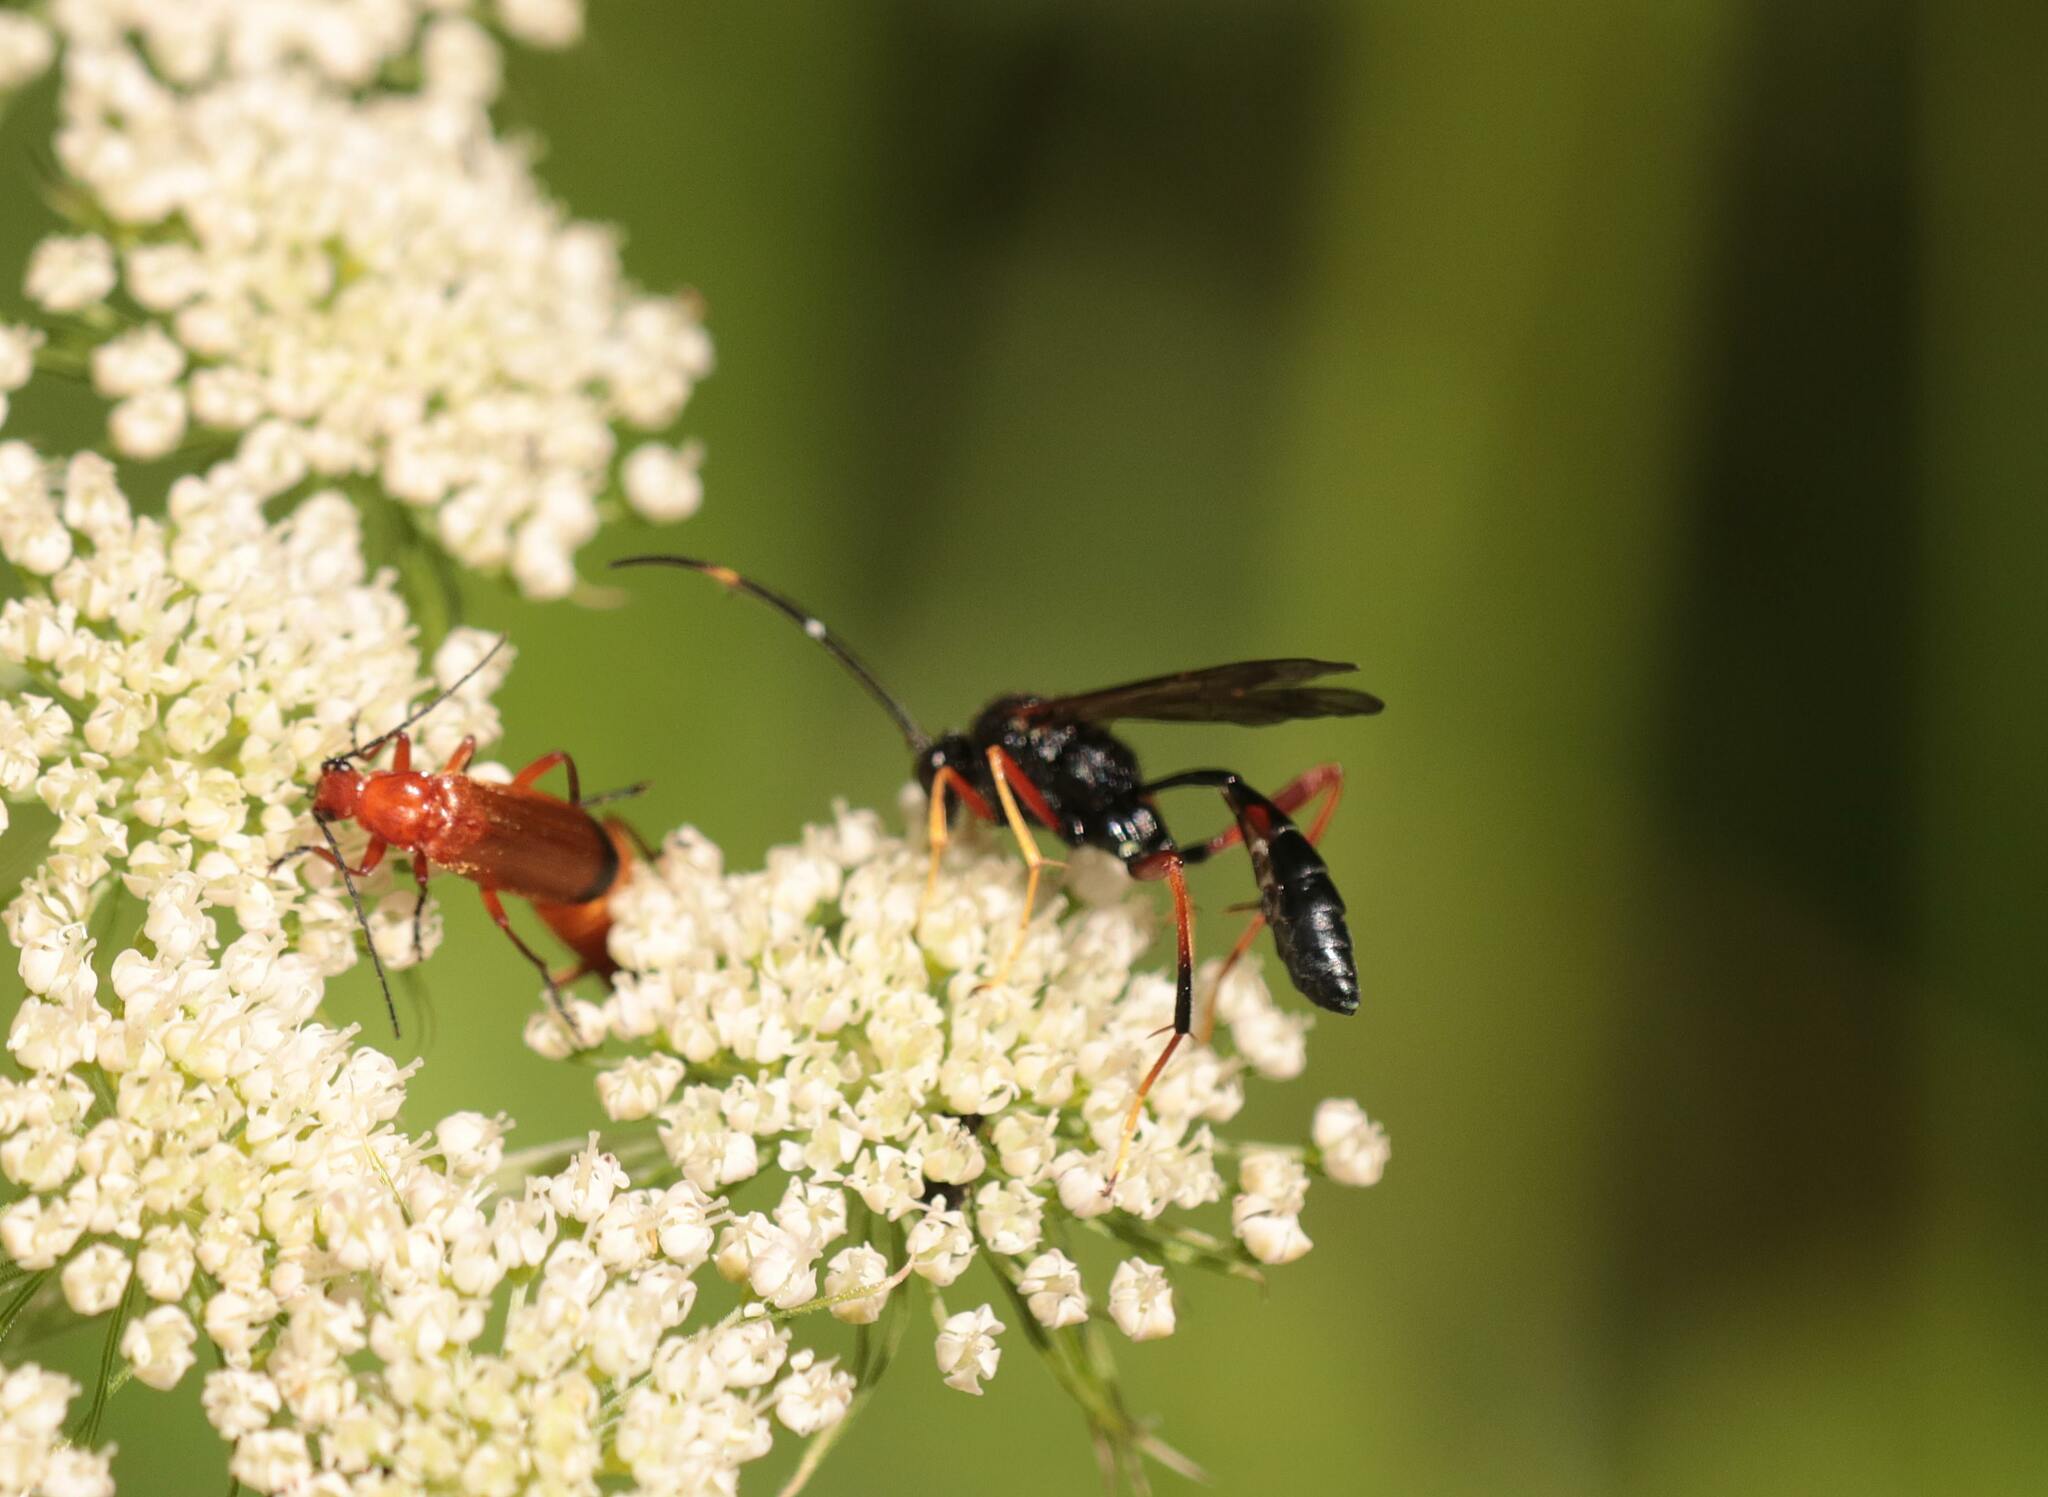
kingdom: Animalia
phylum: Arthropoda
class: Insecta
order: Hymenoptera
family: Ichneumonidae
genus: Acroricnus
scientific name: Acroricnus stylator
